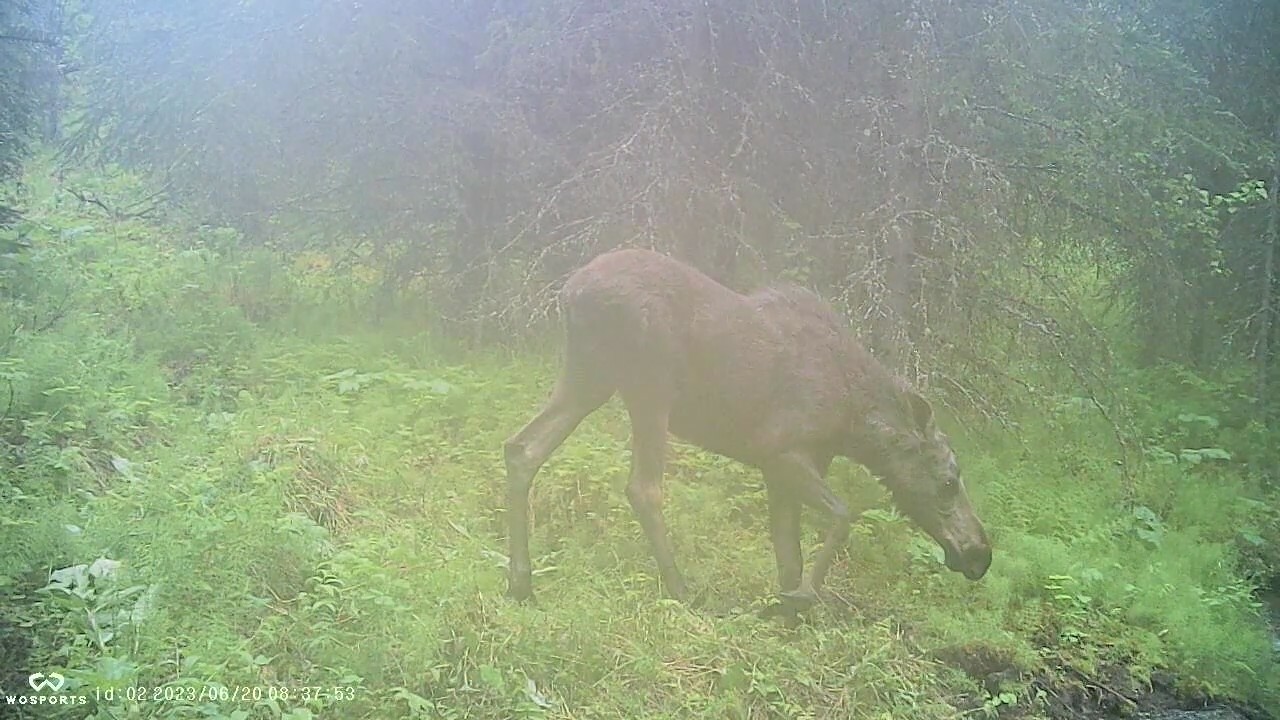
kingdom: Animalia
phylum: Chordata
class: Mammalia
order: Artiodactyla
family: Cervidae
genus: Alces
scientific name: Alces alces
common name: Moose
